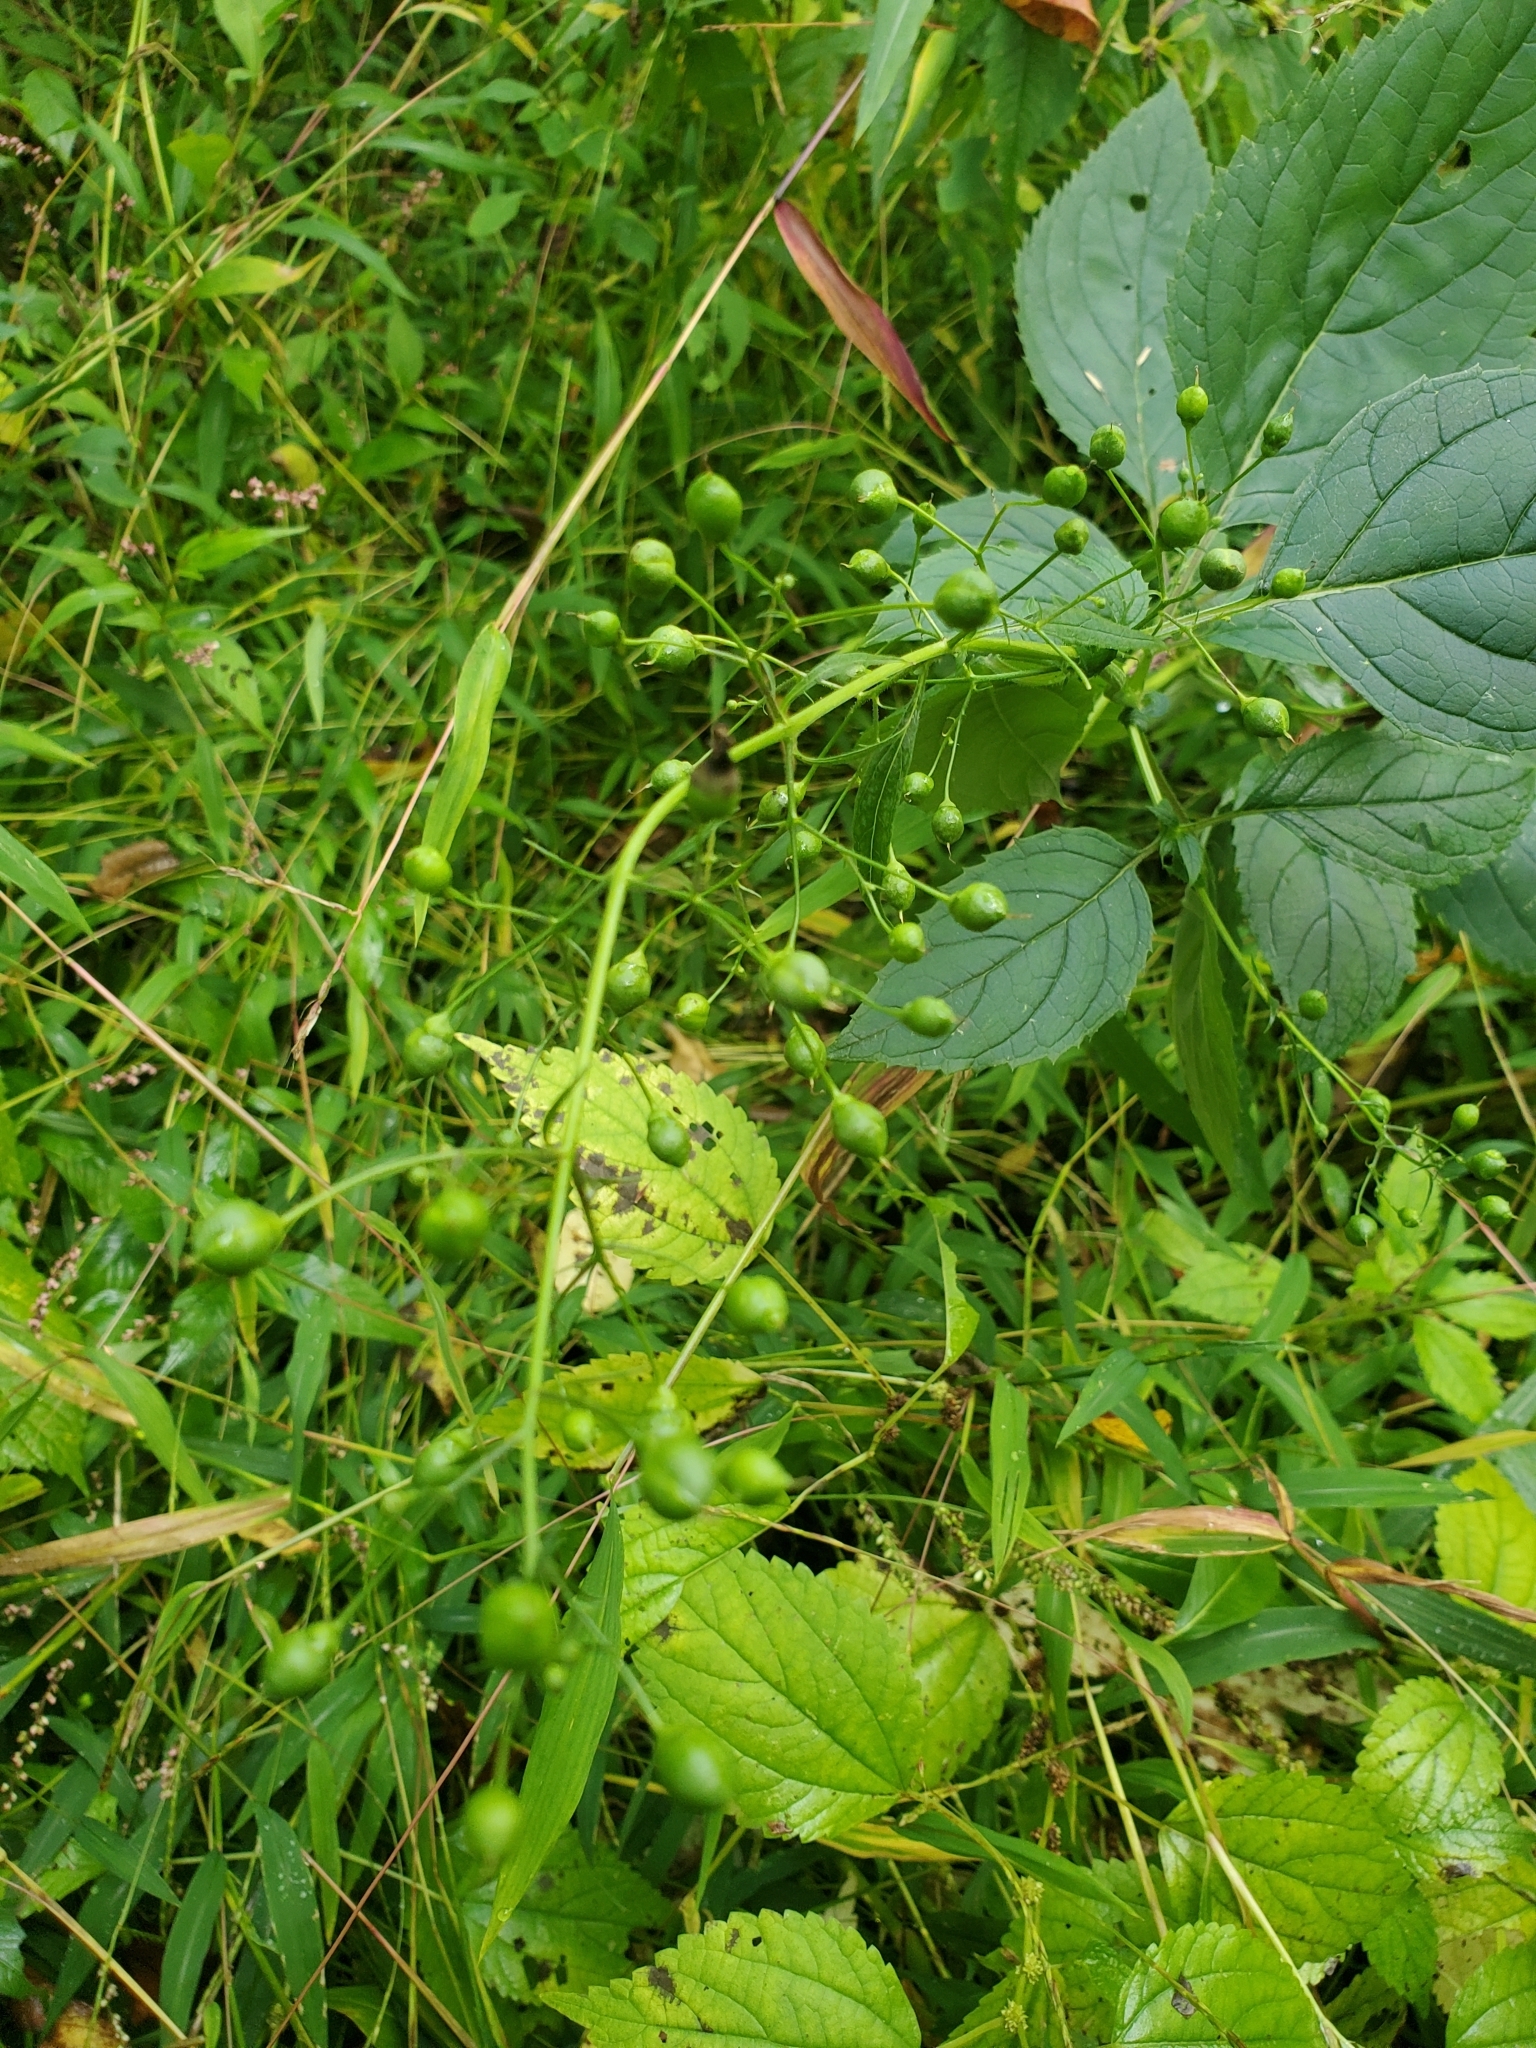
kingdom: Plantae
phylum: Tracheophyta
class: Magnoliopsida
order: Lamiales
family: Scrophulariaceae
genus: Scrophularia
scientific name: Scrophularia marilandica
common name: Eastern figwort
